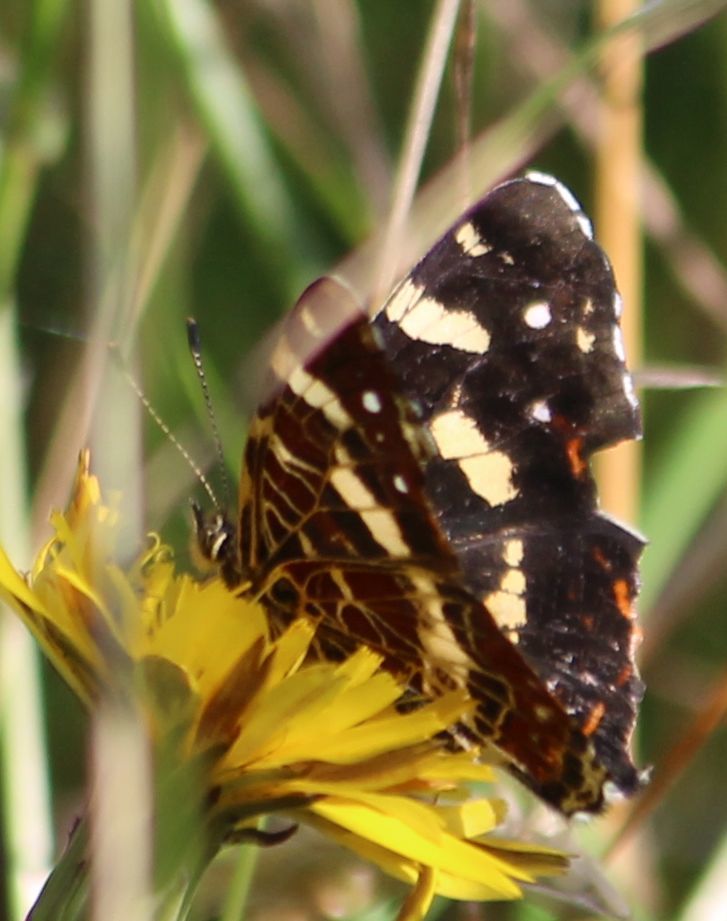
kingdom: Animalia
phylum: Arthropoda
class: Insecta
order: Lepidoptera
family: Nymphalidae
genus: Araschnia
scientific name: Araschnia levana
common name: Map butterfly
